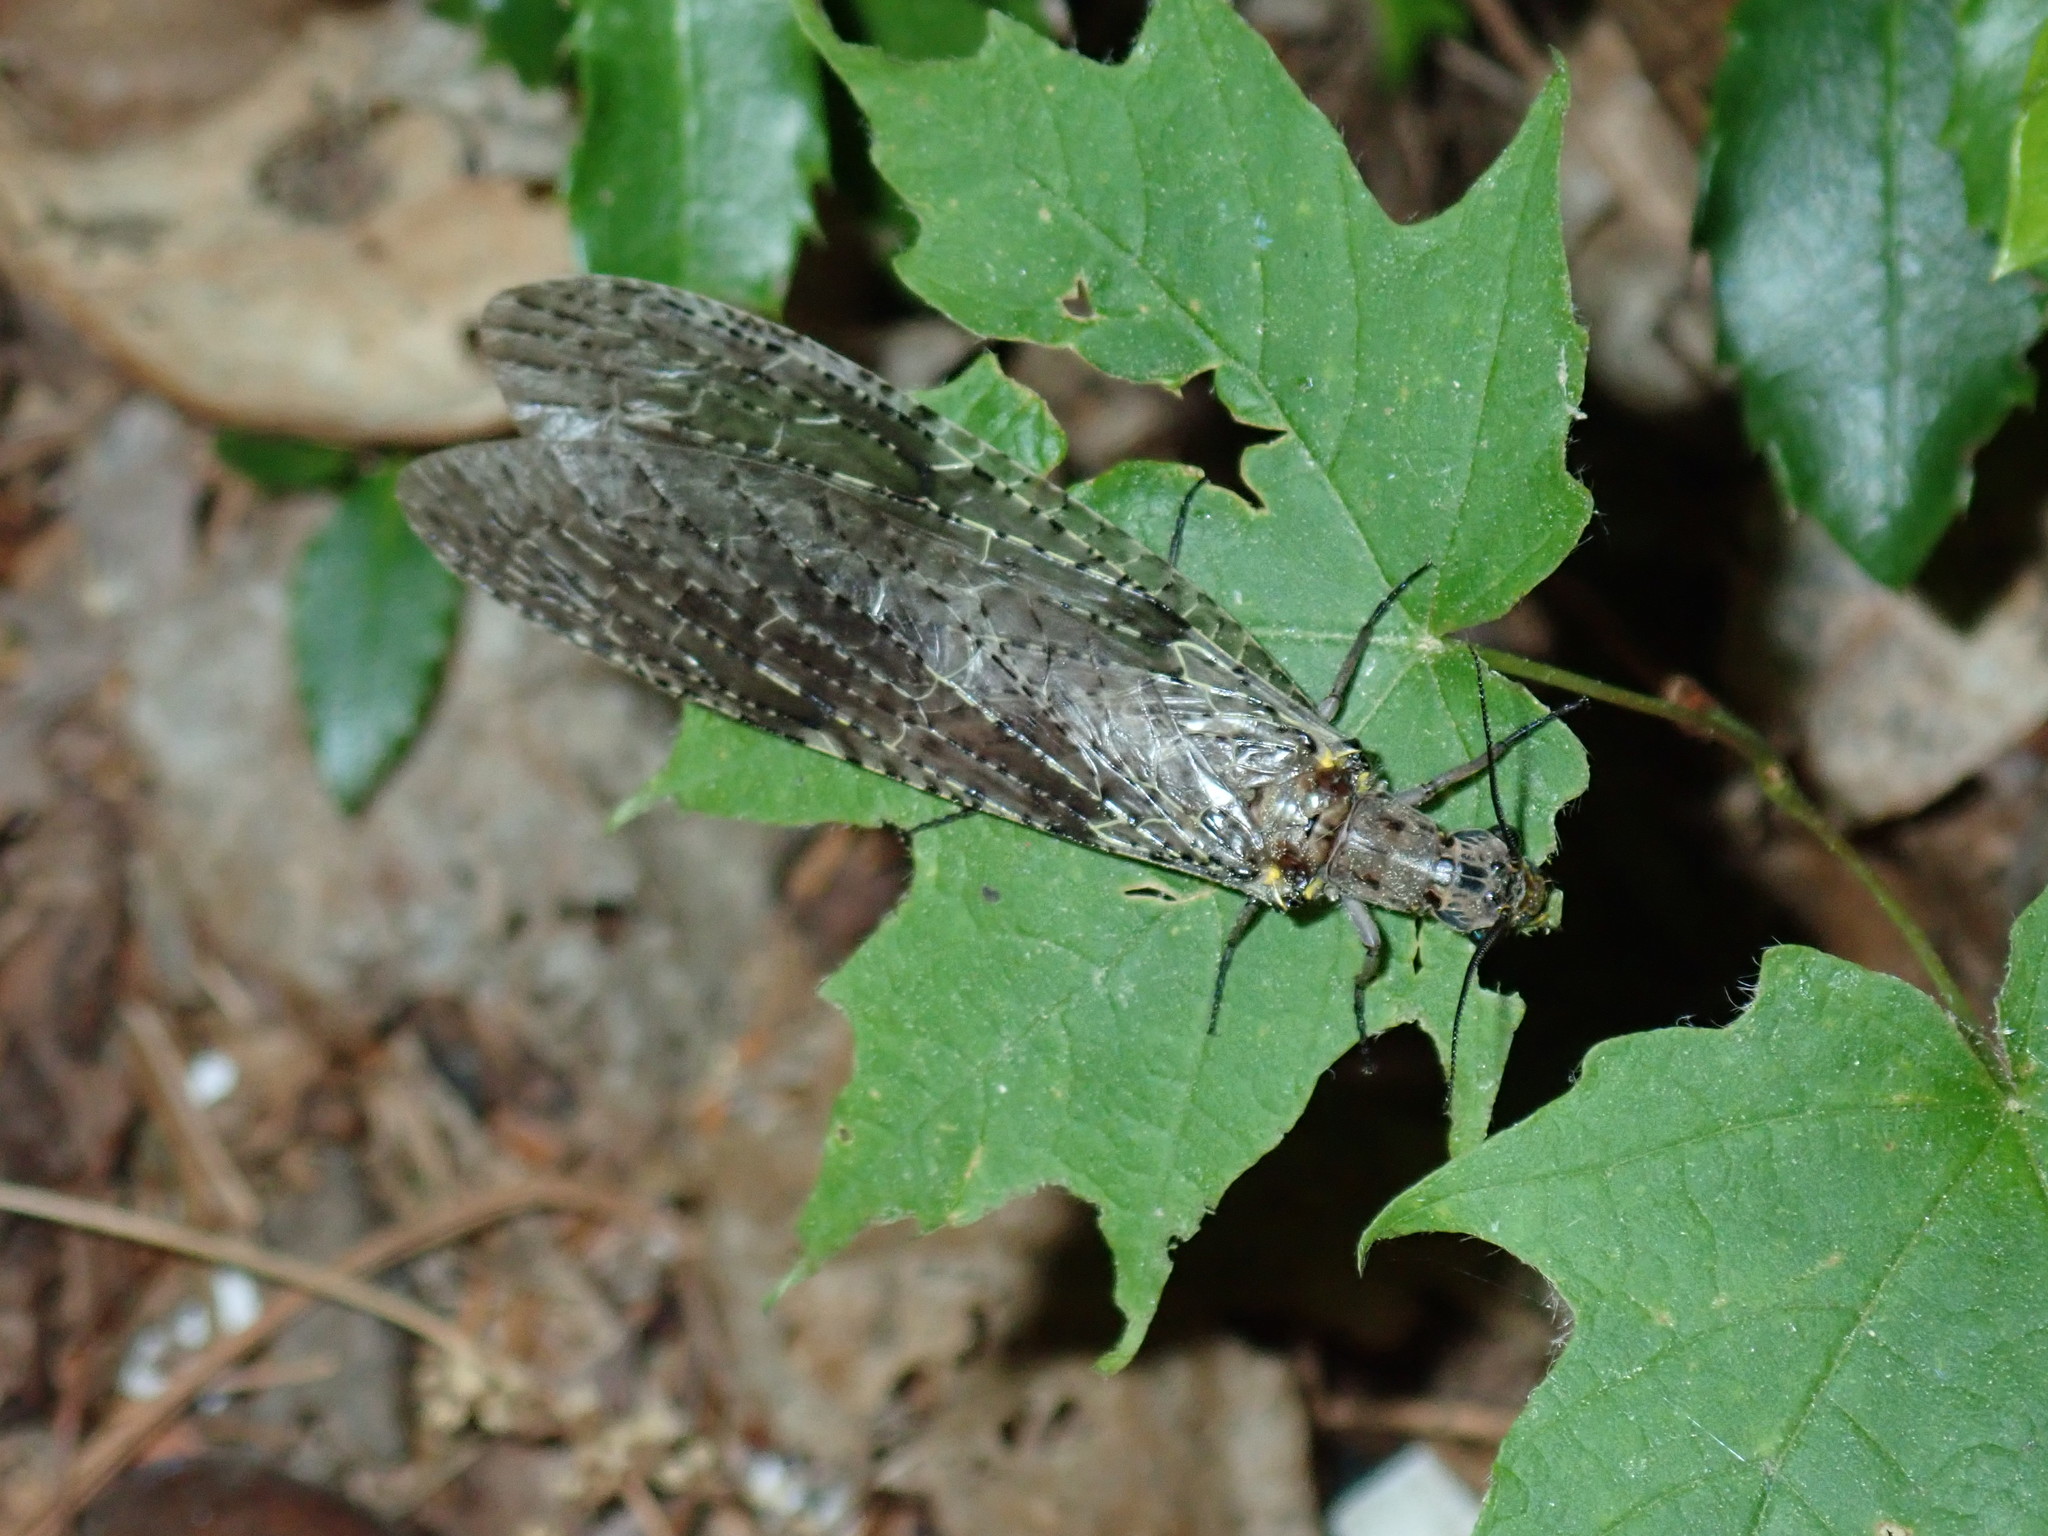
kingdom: Animalia
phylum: Arthropoda
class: Insecta
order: Megaloptera
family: Corydalidae
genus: Chauliodes
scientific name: Chauliodes rastricornis
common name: Spring fishfly
